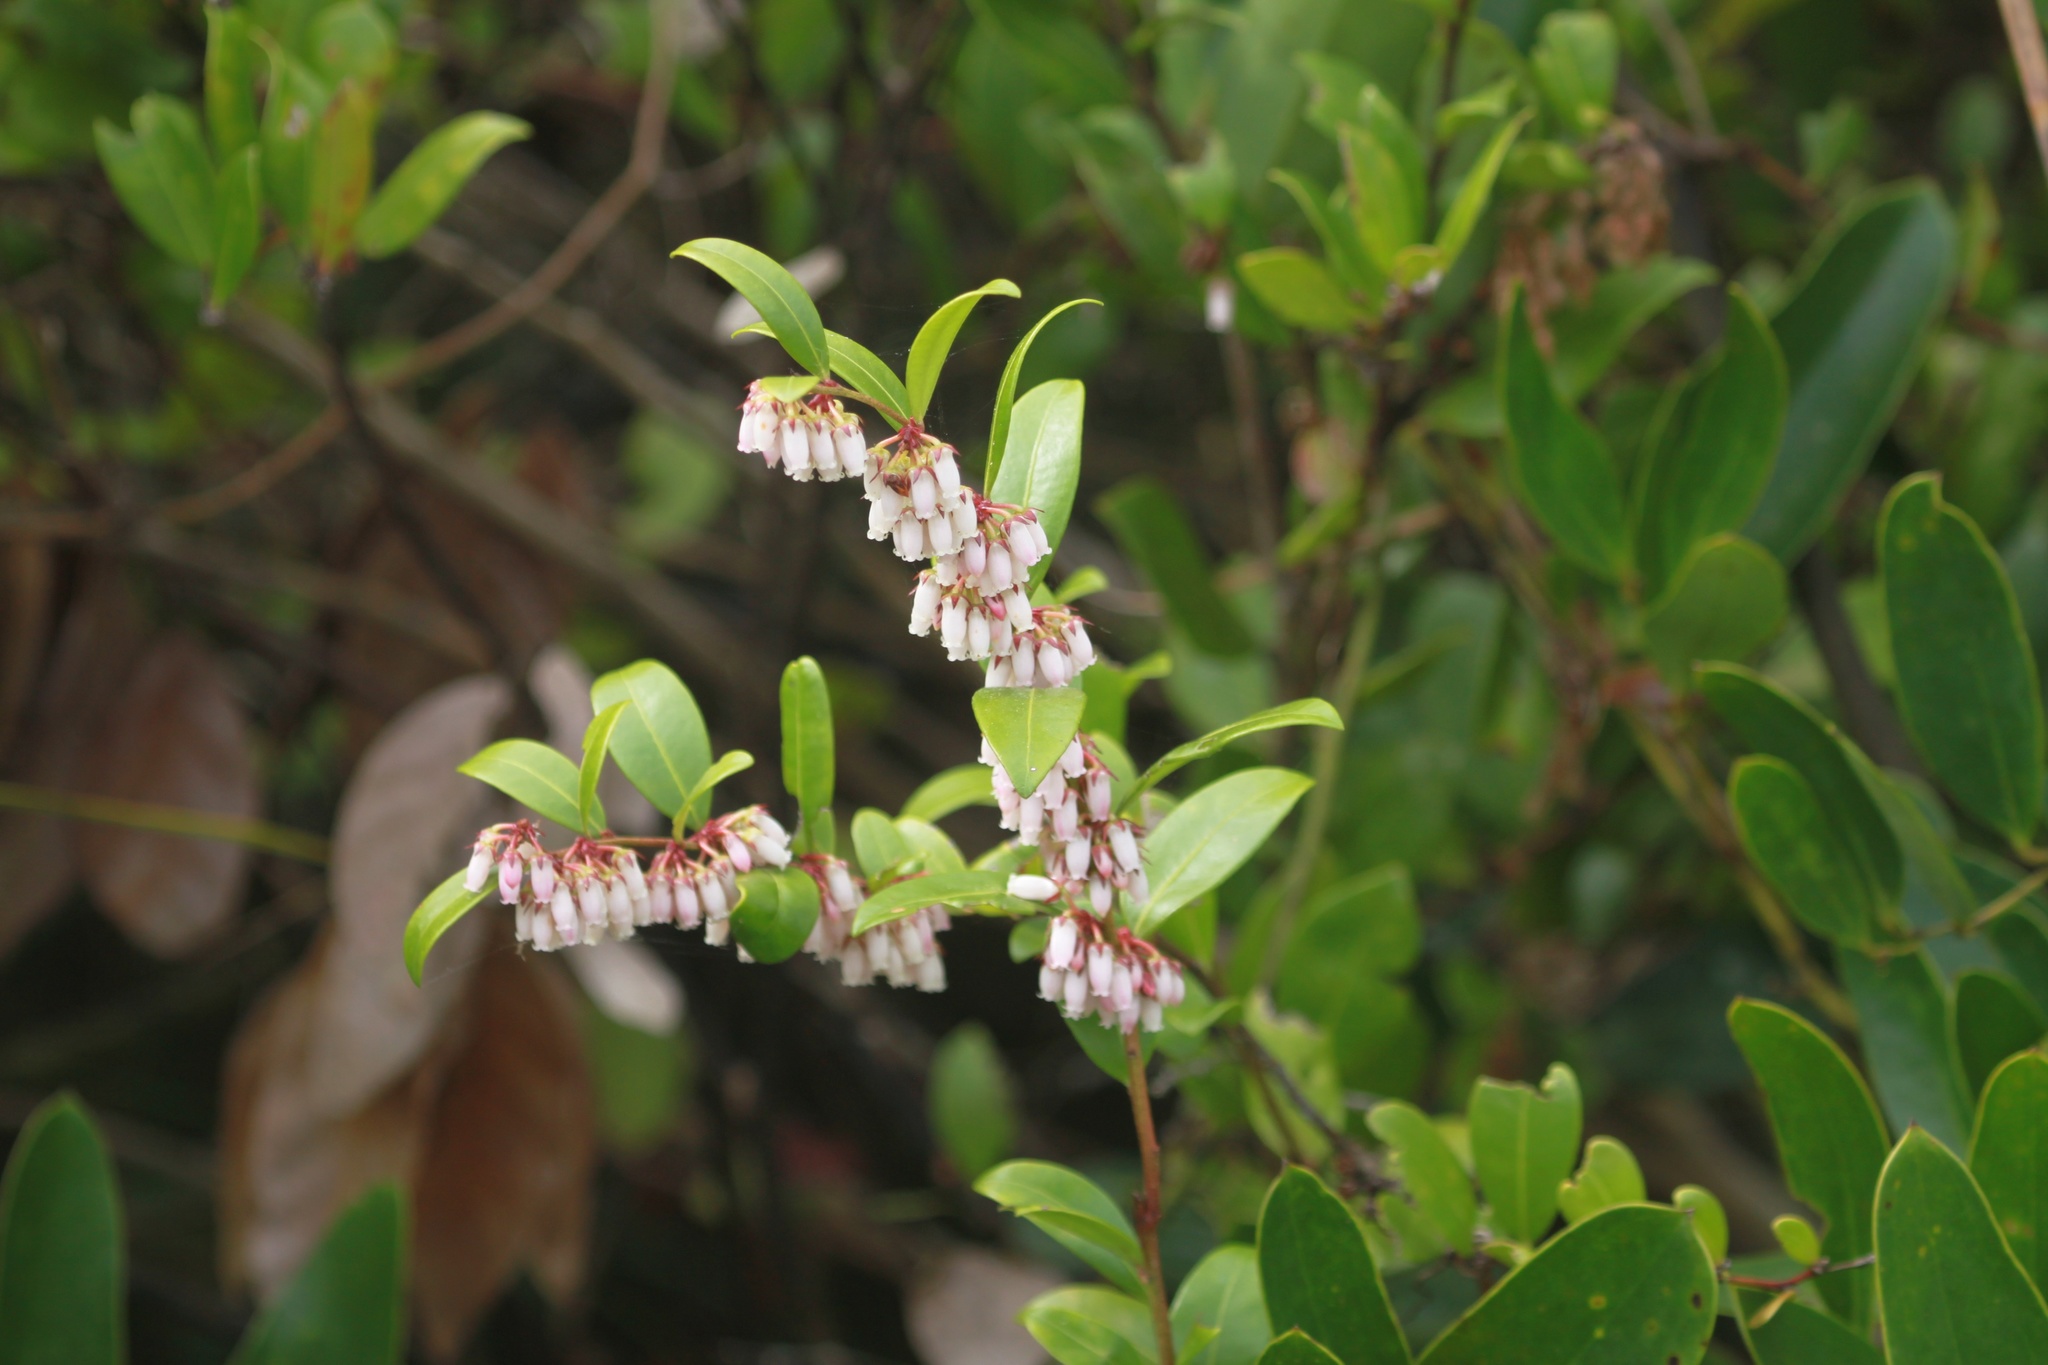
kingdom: Plantae
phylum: Tracheophyta
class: Magnoliopsida
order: Ericales
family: Ericaceae
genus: Lyonia
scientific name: Lyonia lucida
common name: Fetterbush
